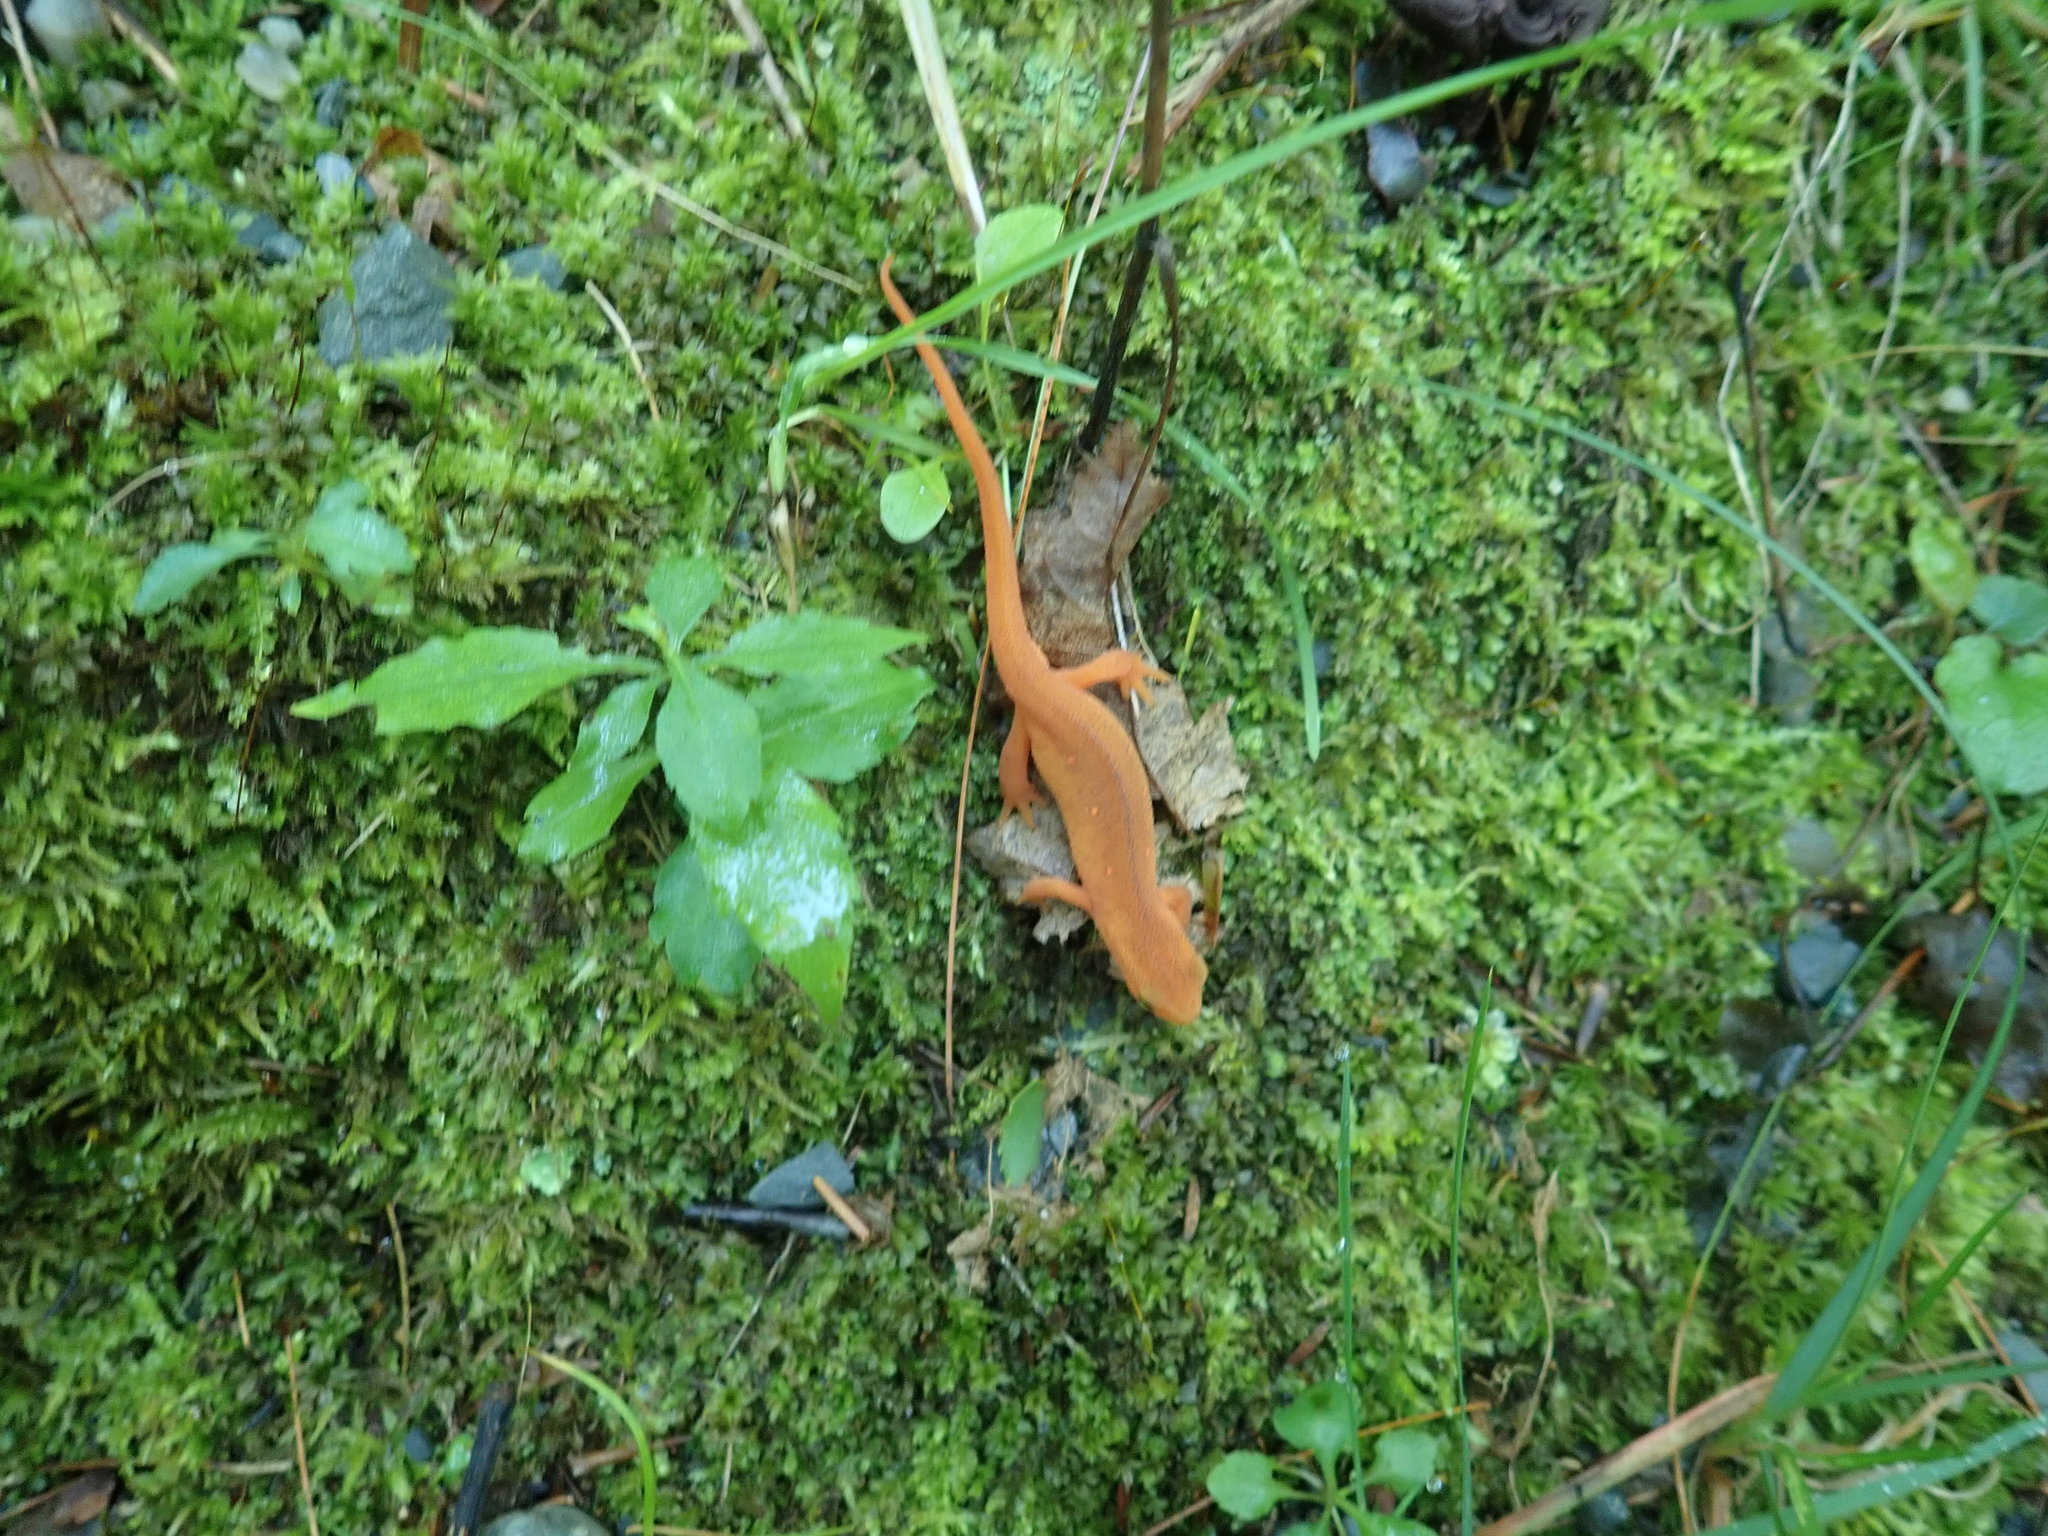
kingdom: Animalia
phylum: Chordata
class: Amphibia
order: Caudata
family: Salamandridae
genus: Notophthalmus
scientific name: Notophthalmus viridescens
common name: Eastern newt
